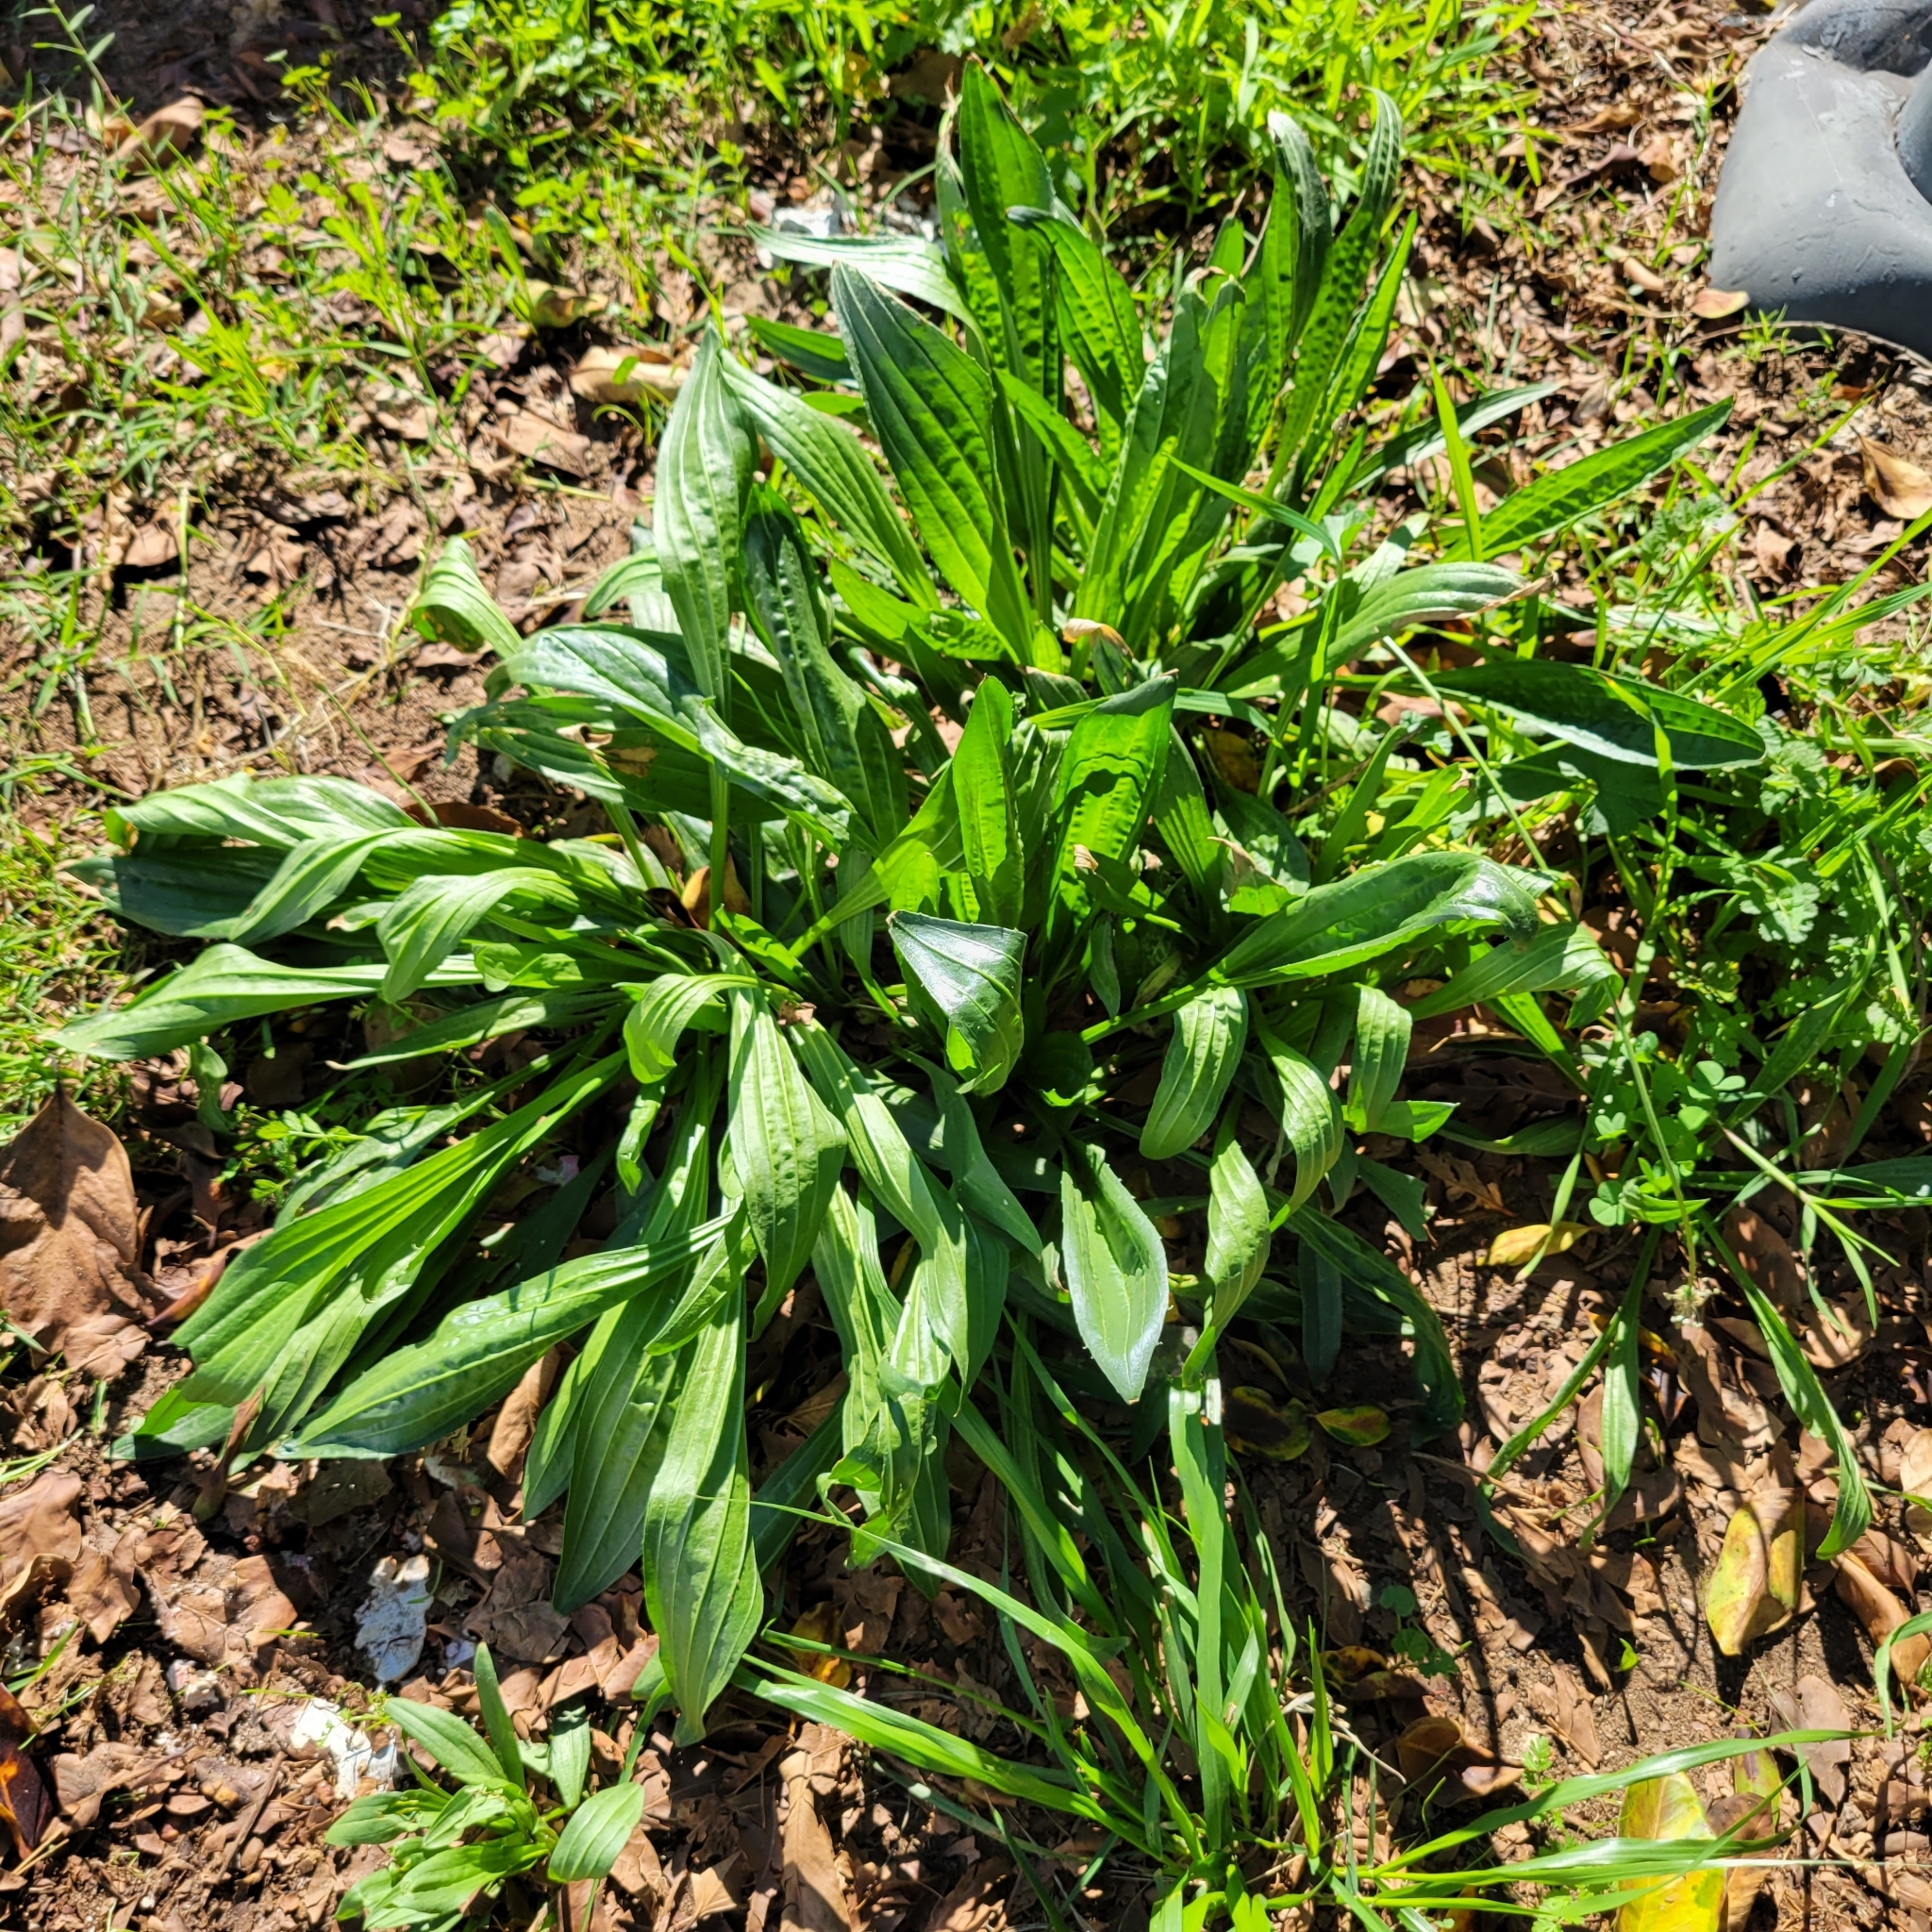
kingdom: Plantae
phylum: Tracheophyta
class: Magnoliopsida
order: Lamiales
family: Plantaginaceae
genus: Plantago
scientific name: Plantago lanceolata
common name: Ribwort plantain
